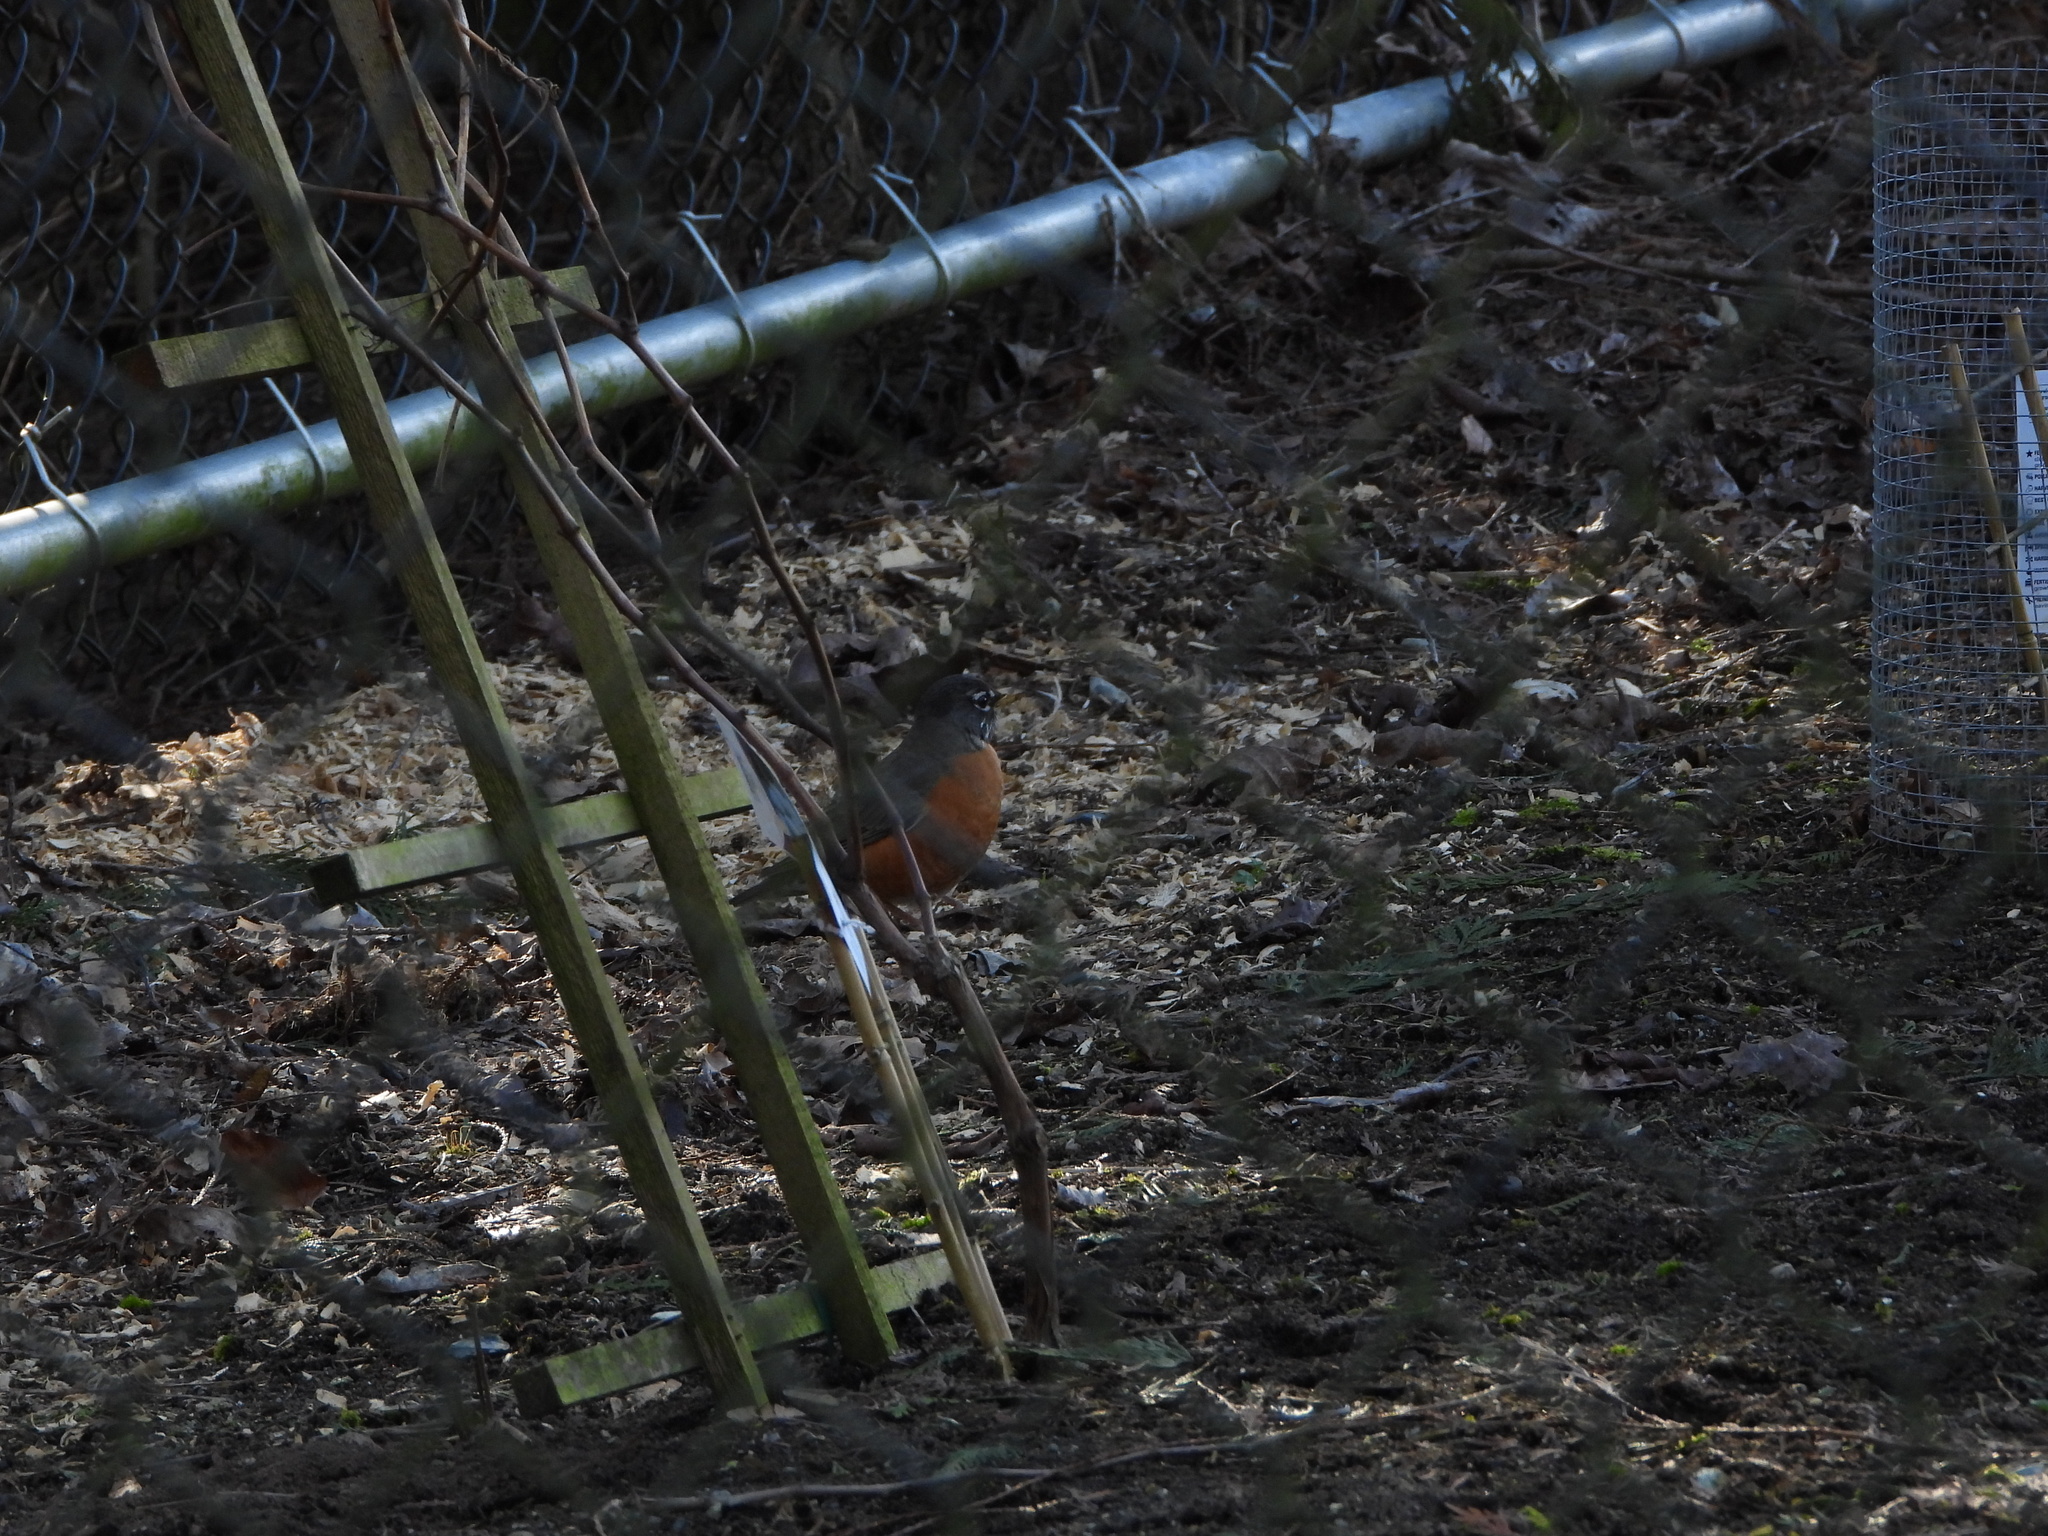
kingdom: Animalia
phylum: Chordata
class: Aves
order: Passeriformes
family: Turdidae
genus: Turdus
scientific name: Turdus migratorius
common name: American robin
